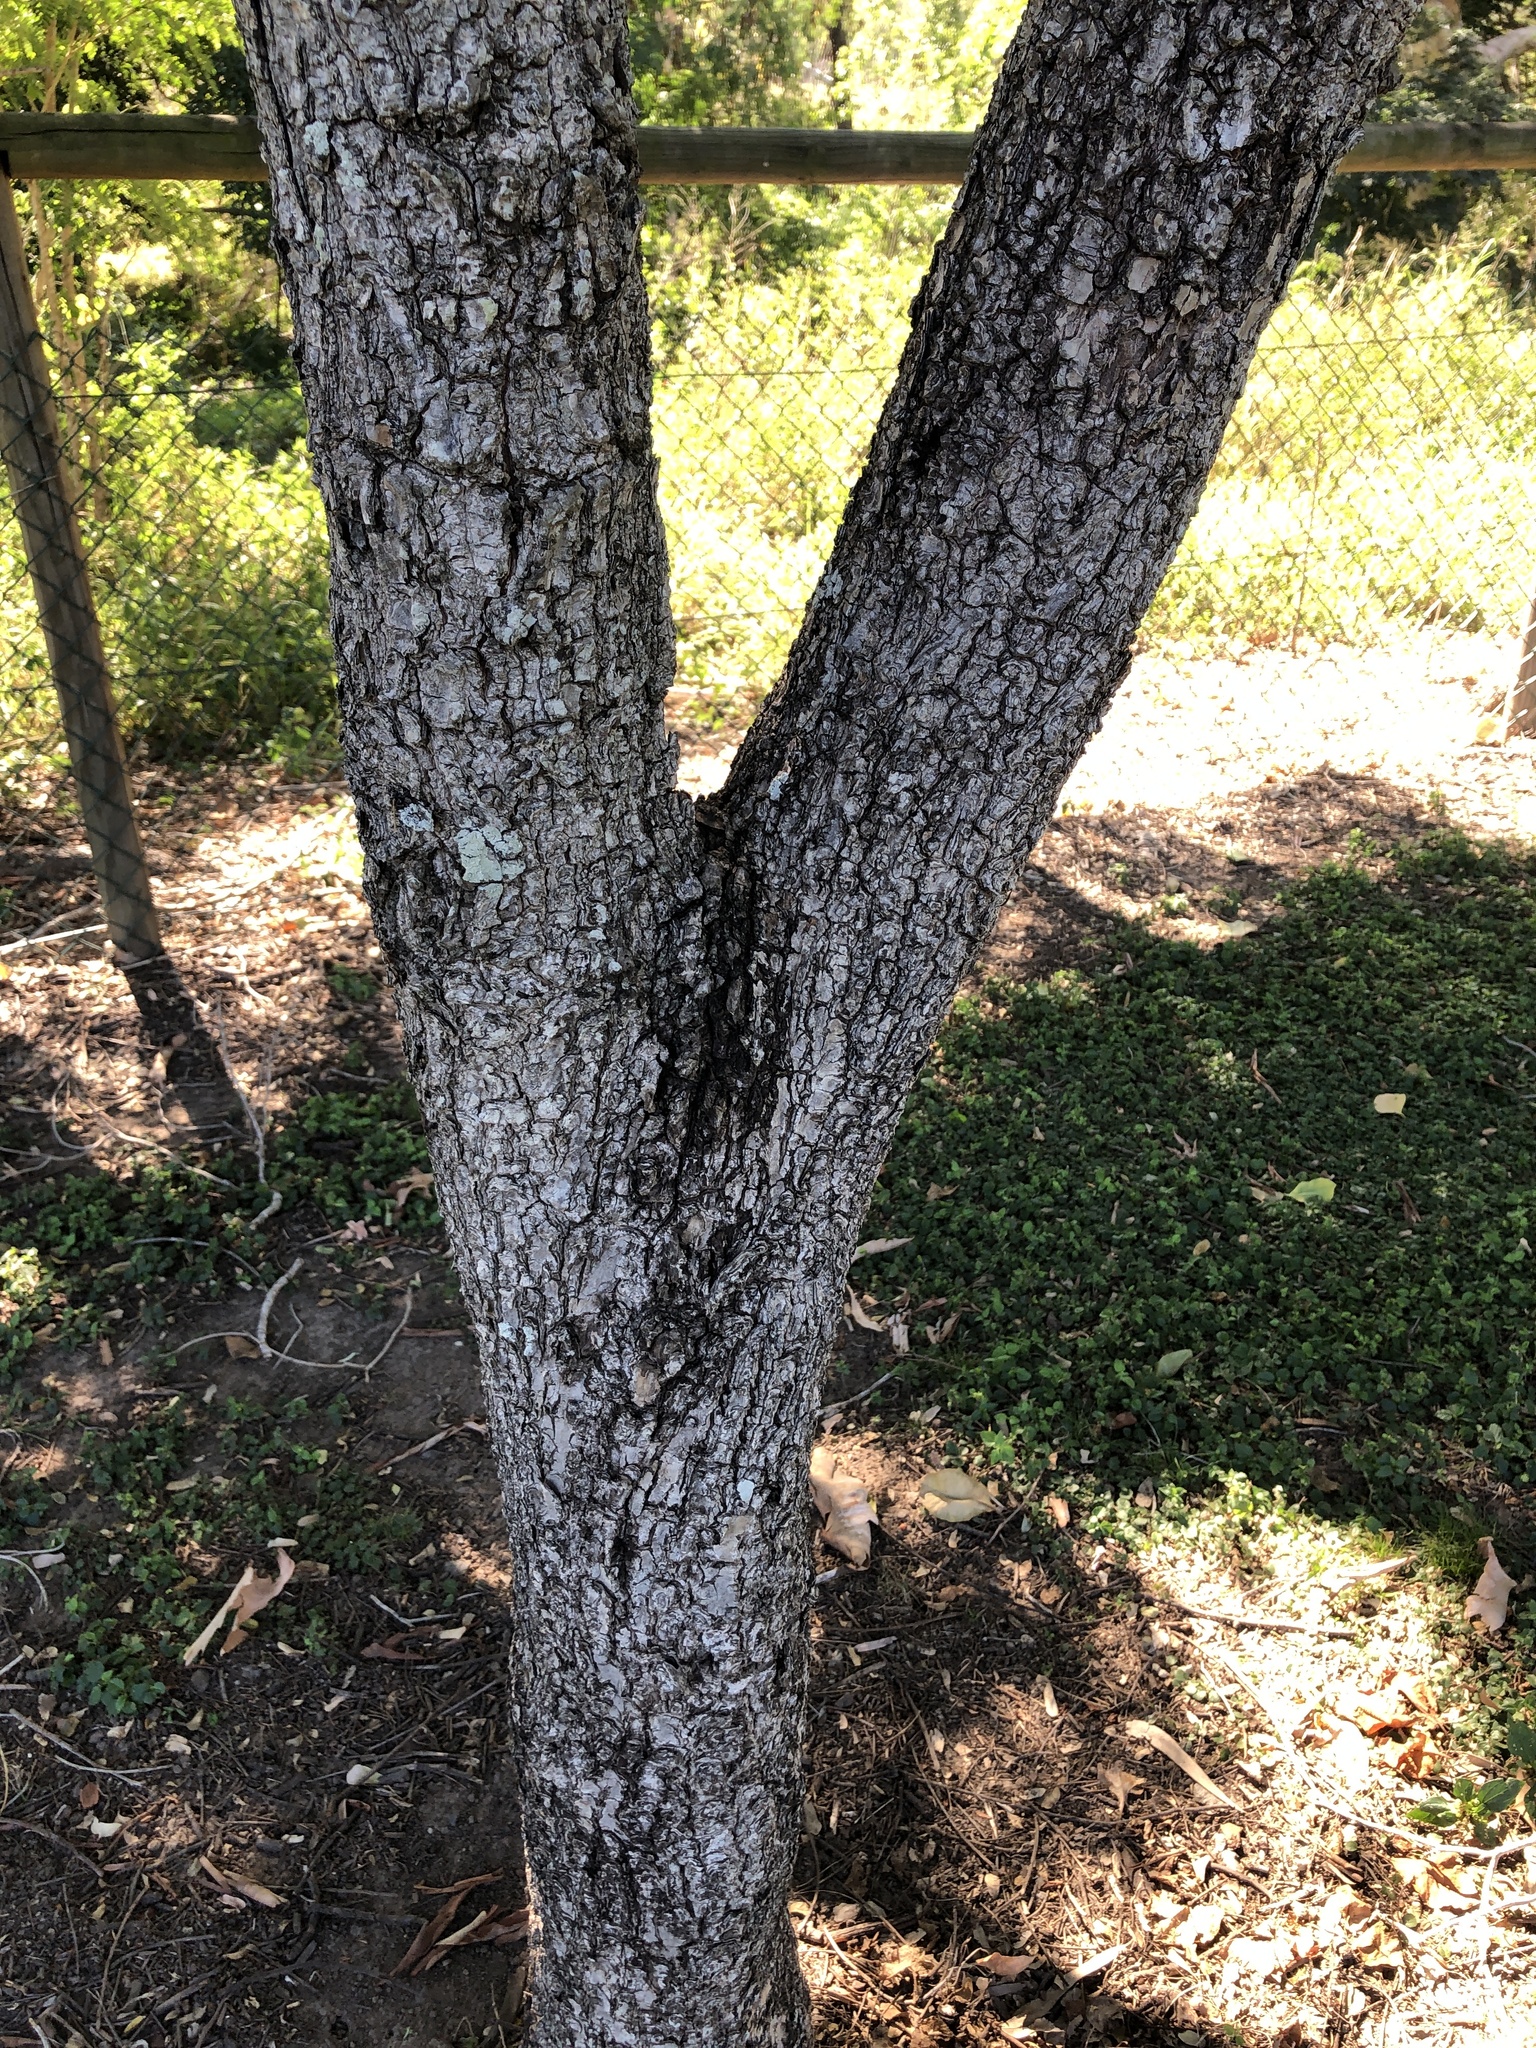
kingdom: Plantae
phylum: Tracheophyta
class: Magnoliopsida
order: Ericales
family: Lecythidaceae
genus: Planchonia
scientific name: Planchonia careya
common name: Cockatoo-apple
